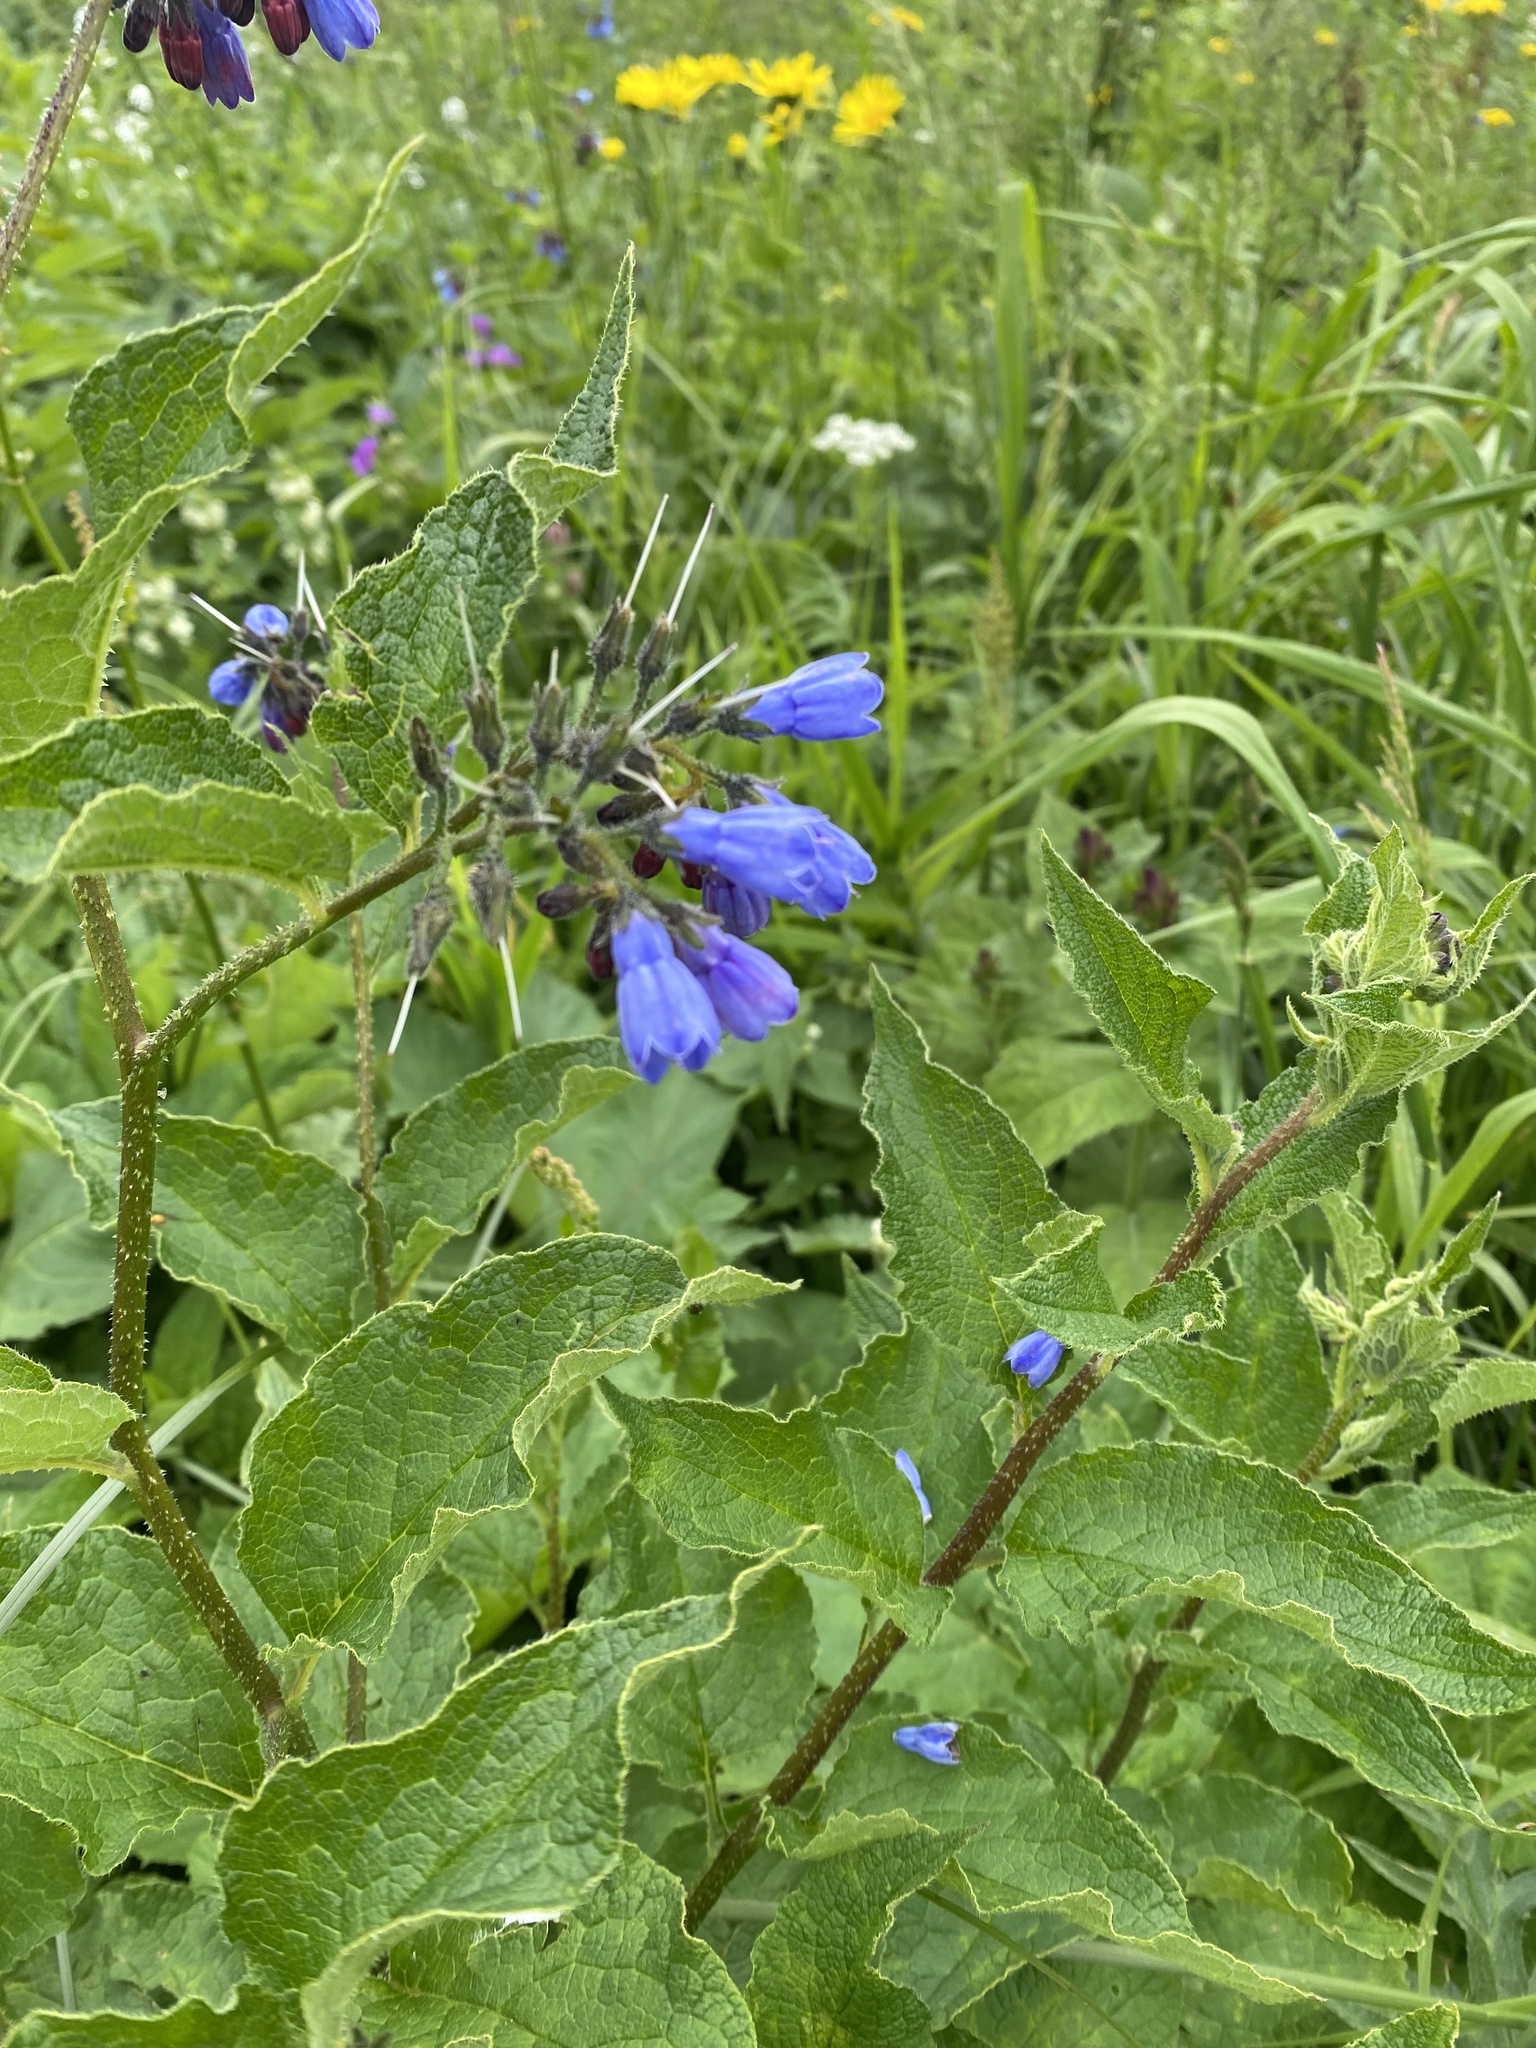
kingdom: Plantae
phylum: Tracheophyta
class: Magnoliopsida
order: Boraginales
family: Boraginaceae
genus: Symphytum
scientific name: Symphytum asperum
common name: Prickly comfrey
